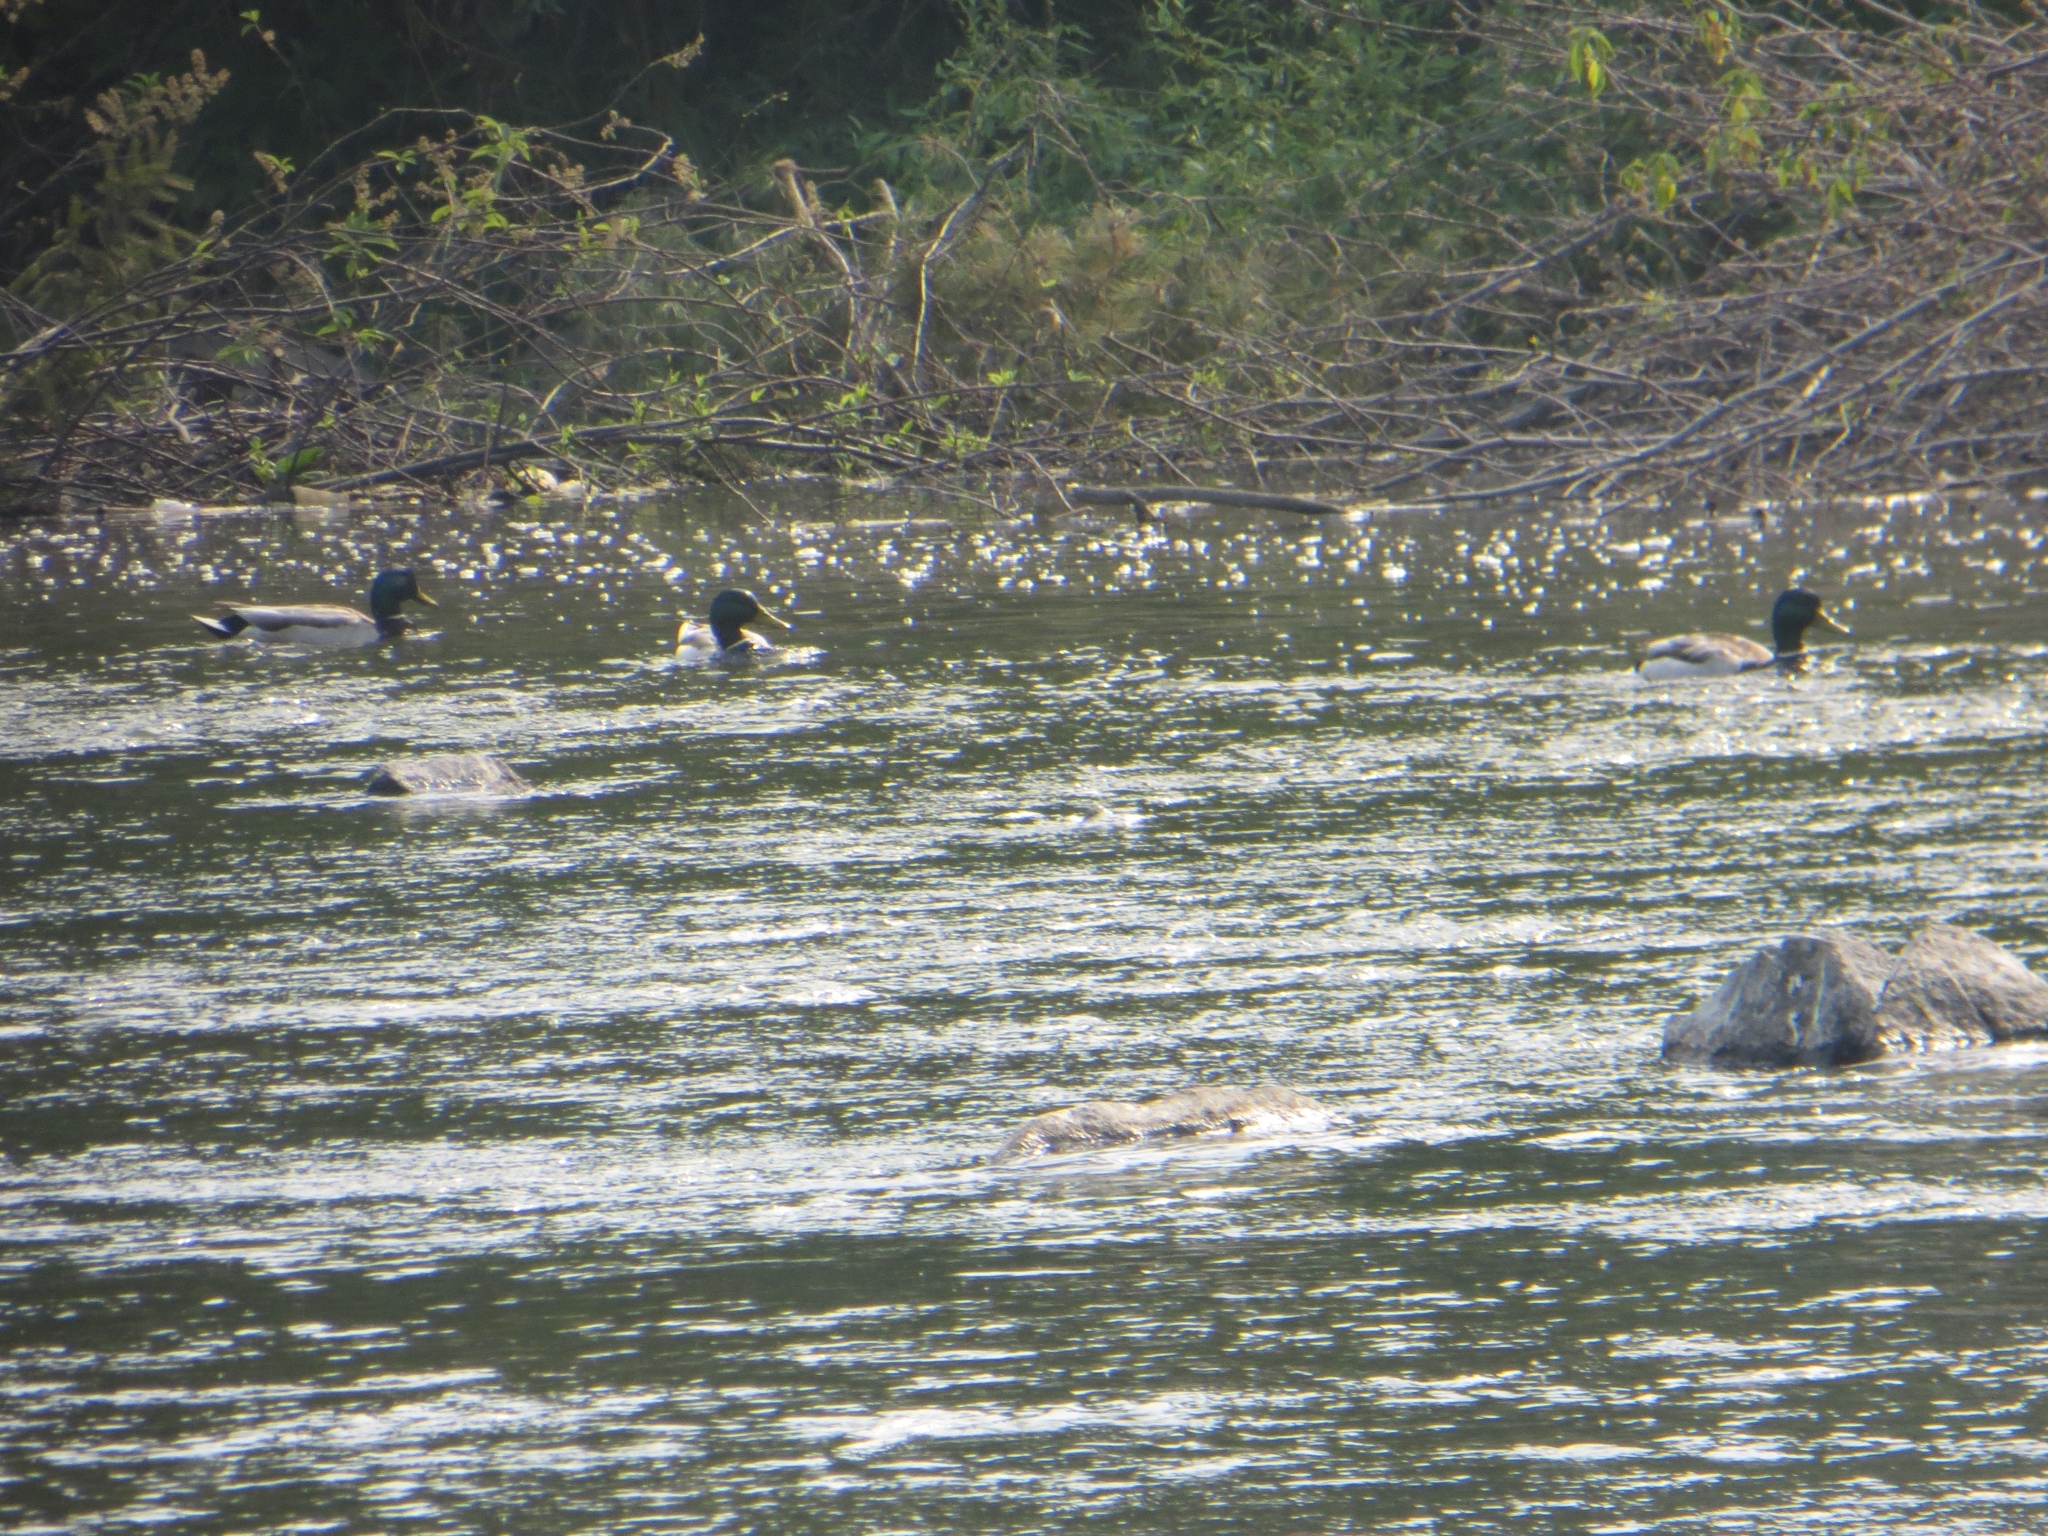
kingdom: Animalia
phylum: Chordata
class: Aves
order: Anseriformes
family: Anatidae
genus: Anas
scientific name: Anas platyrhynchos
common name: Mallard
